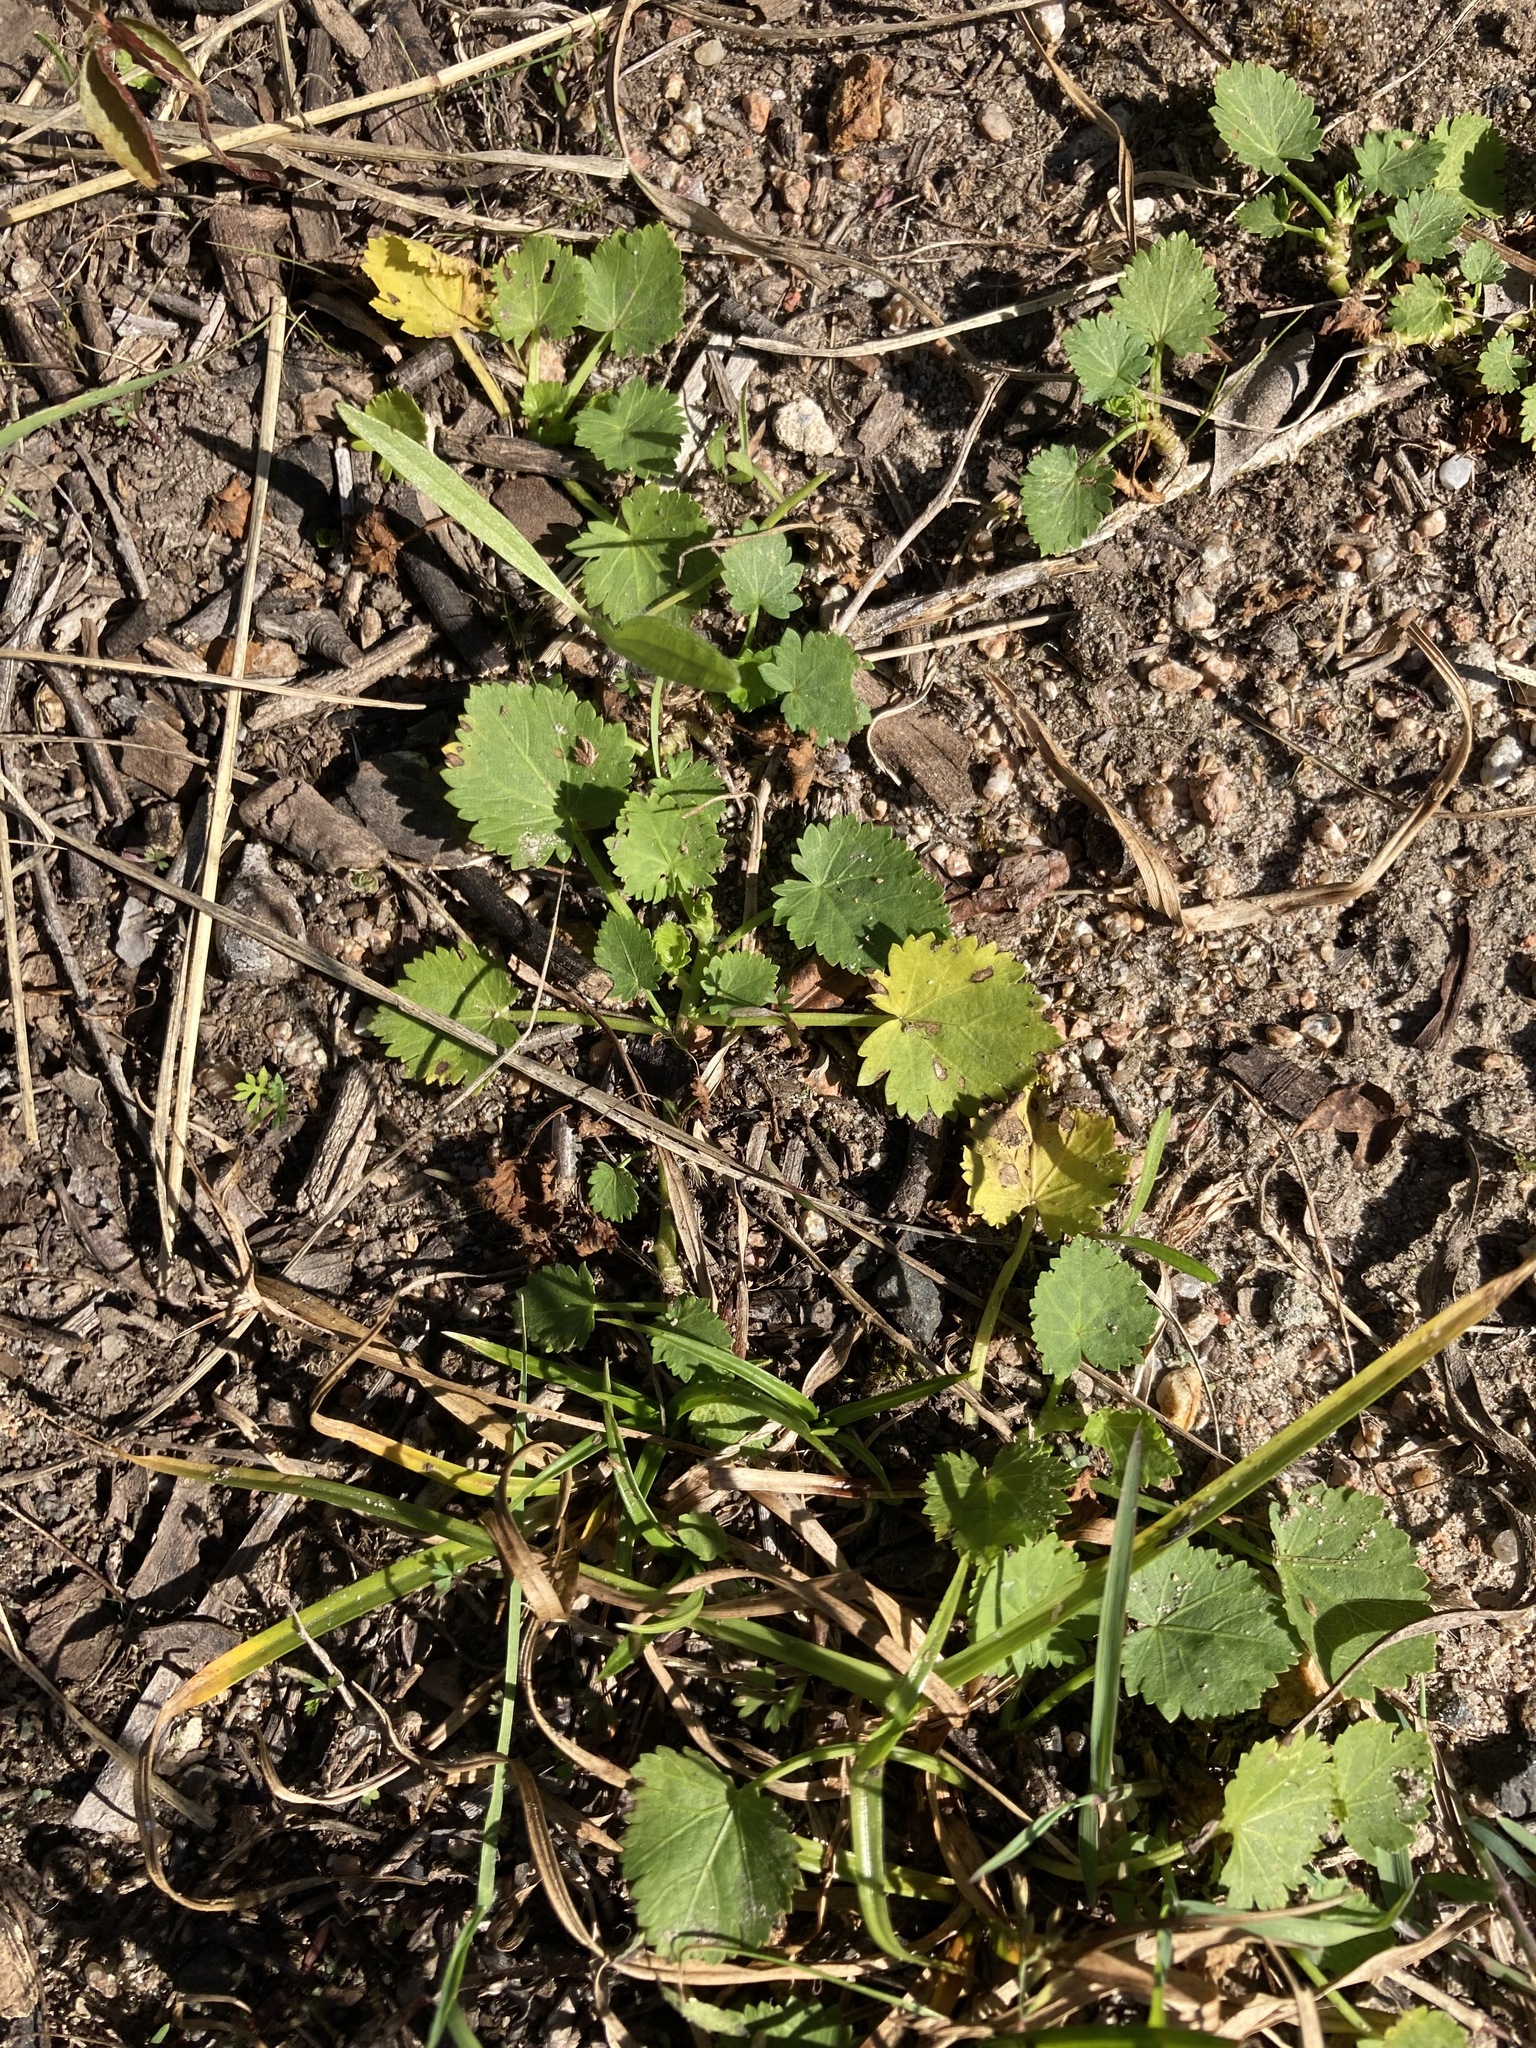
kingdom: Plantae
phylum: Tracheophyta
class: Magnoliopsida
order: Malvales
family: Malvaceae
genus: Modiola
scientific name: Modiola caroliniana
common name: Carolina bristlemallow
